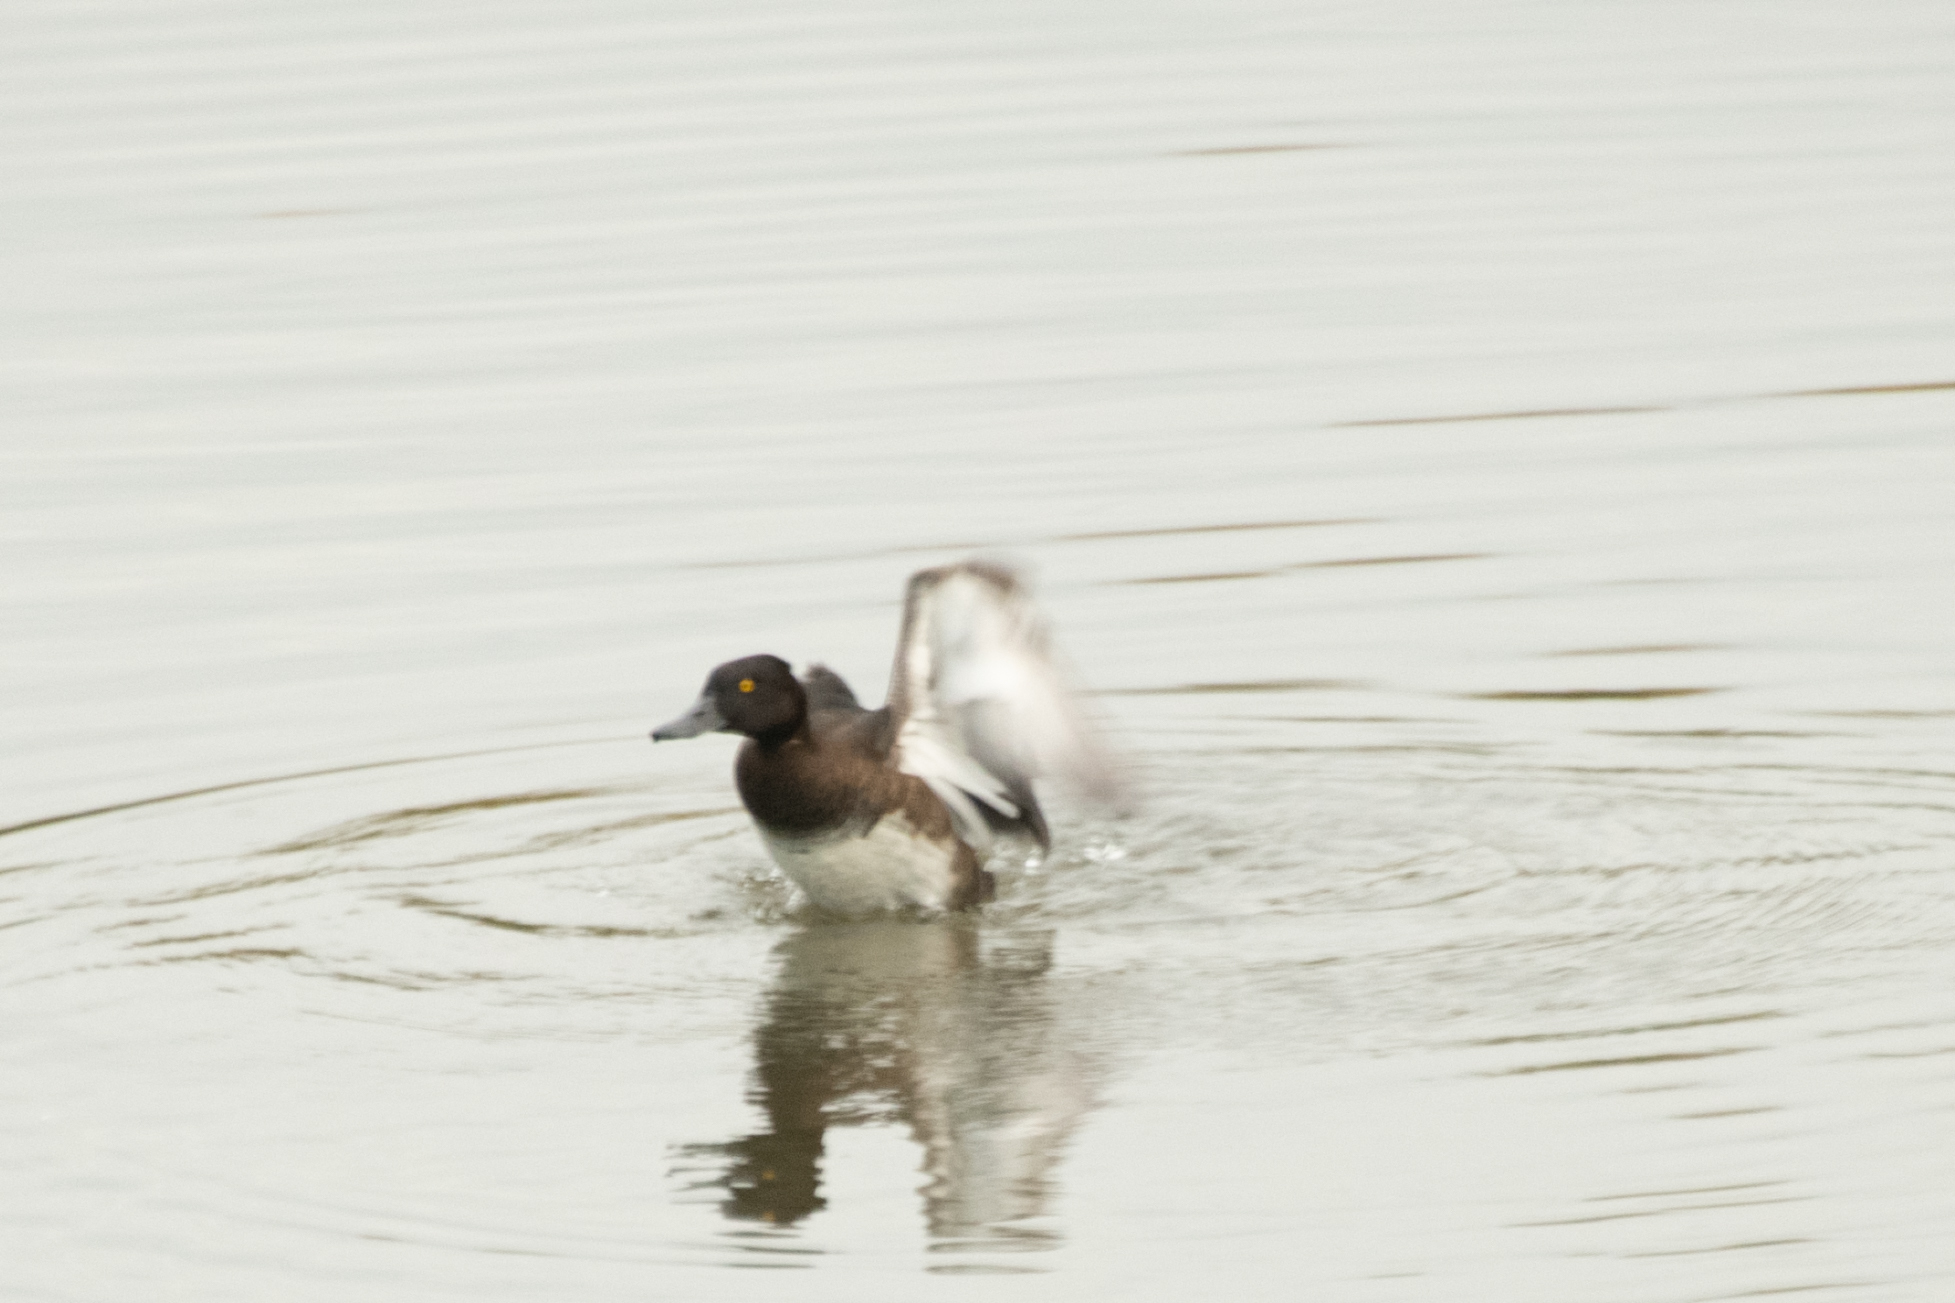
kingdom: Animalia
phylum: Chordata
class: Aves
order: Anseriformes
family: Anatidae
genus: Aythya
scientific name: Aythya fuligula
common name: Tufted duck
